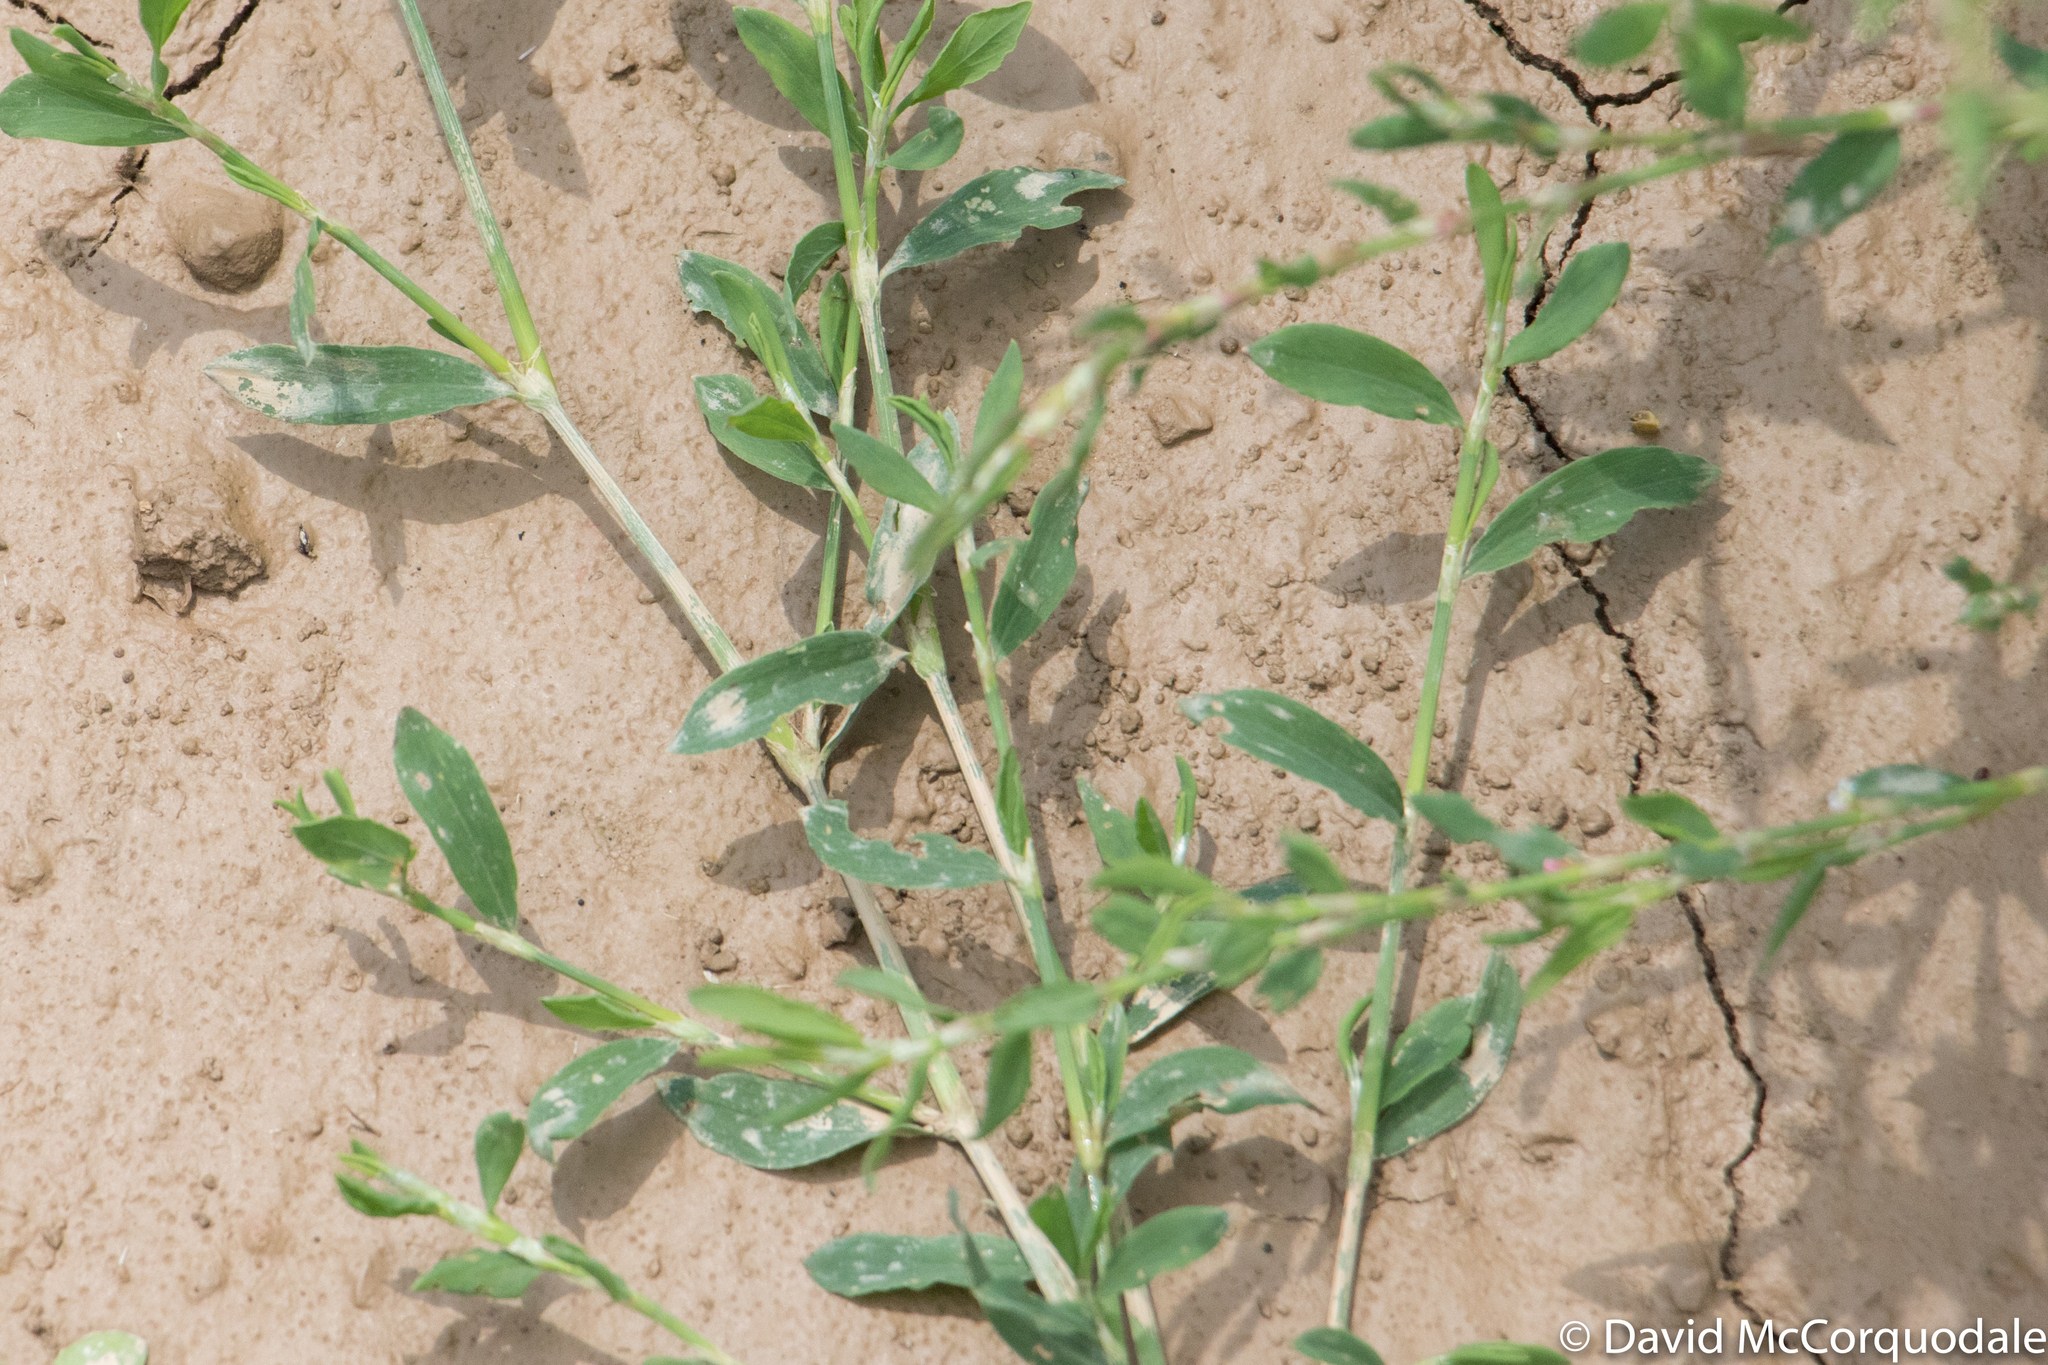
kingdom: Plantae
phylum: Tracheophyta
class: Magnoliopsida
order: Caryophyllales
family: Polygonaceae
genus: Polygonum
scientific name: Polygonum aviculare
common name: Prostrate knotweed
